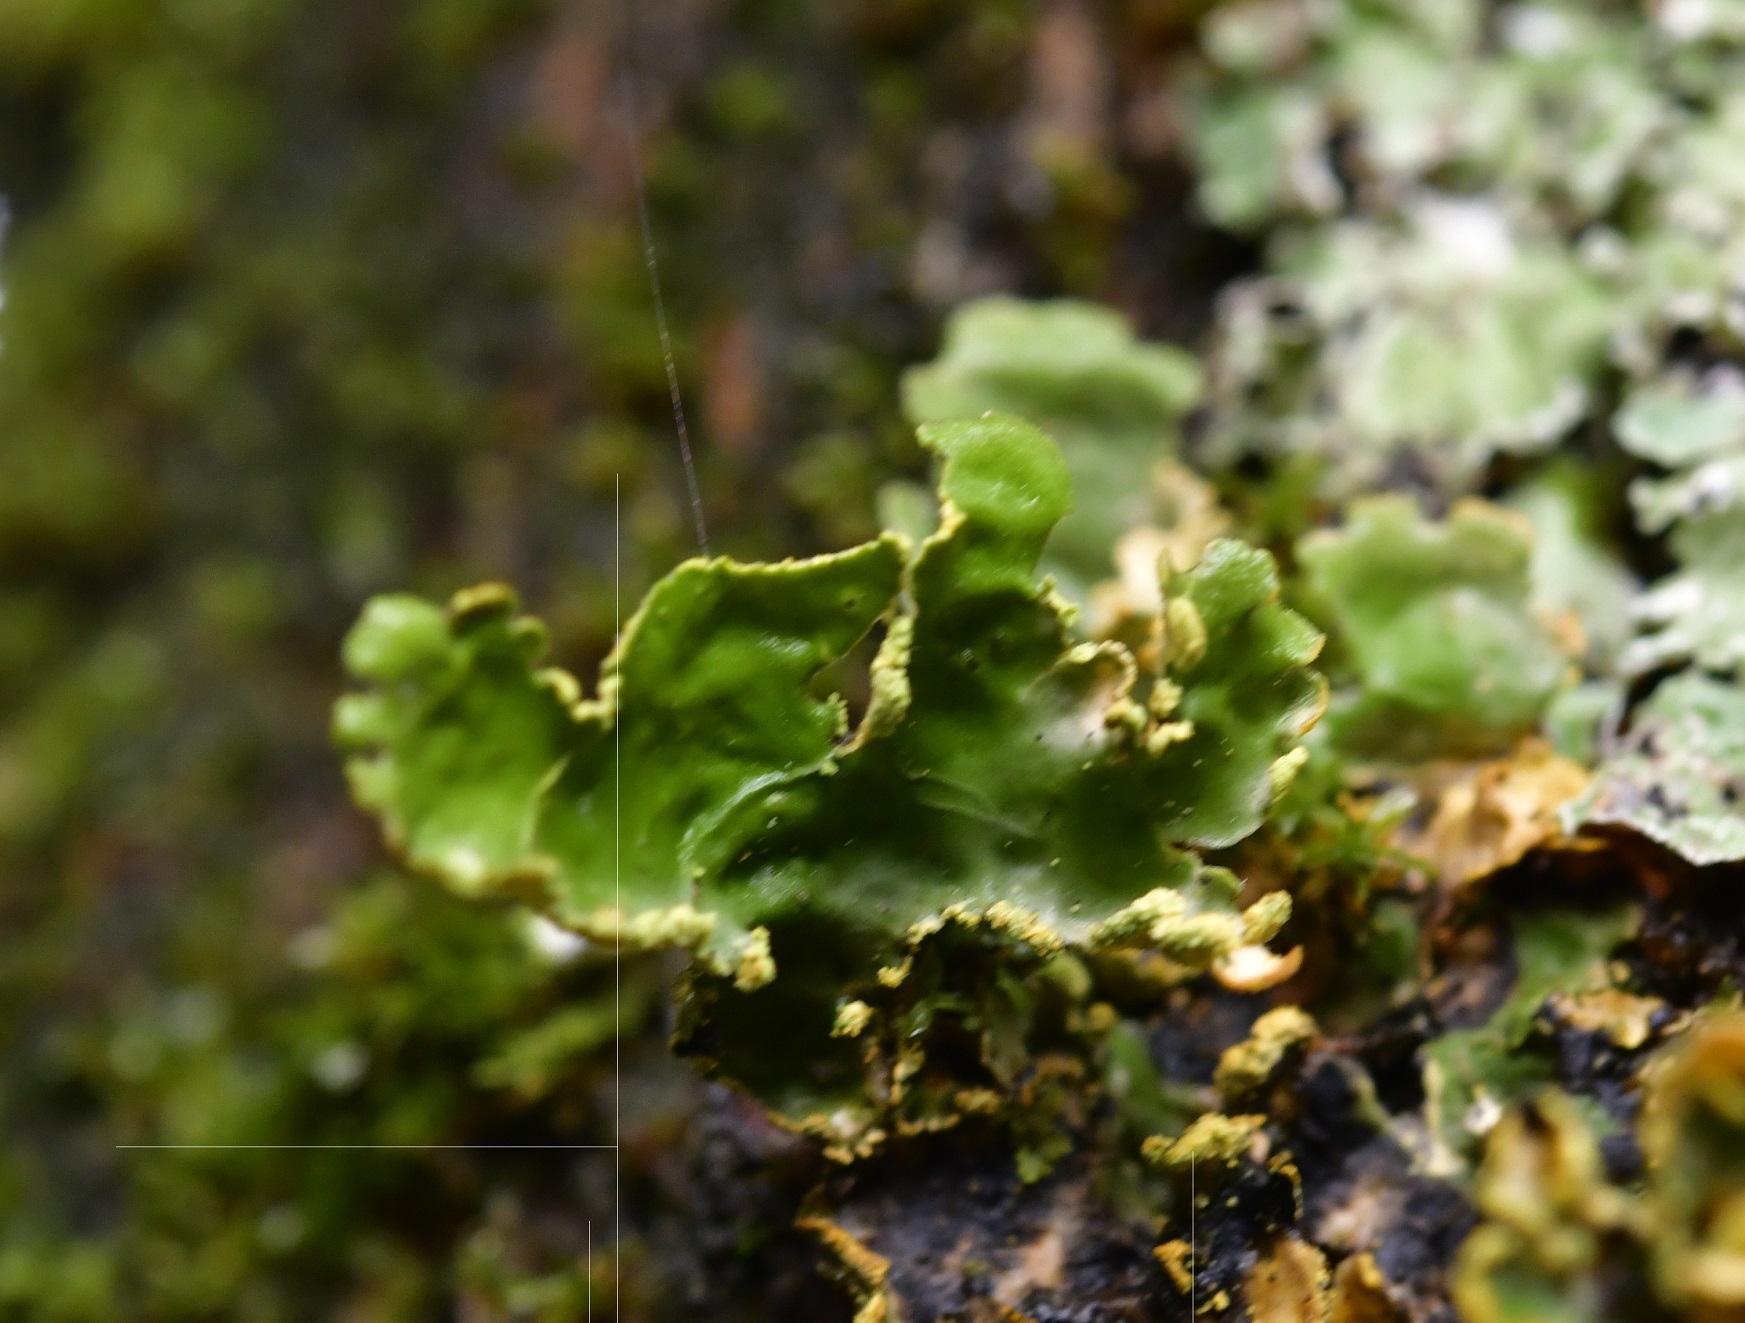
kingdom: Fungi
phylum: Ascomycota
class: Lecanoromycetes
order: Peltigerales
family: Lobariaceae
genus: Pseudocyphellaria
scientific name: Pseudocyphellaria aurata
